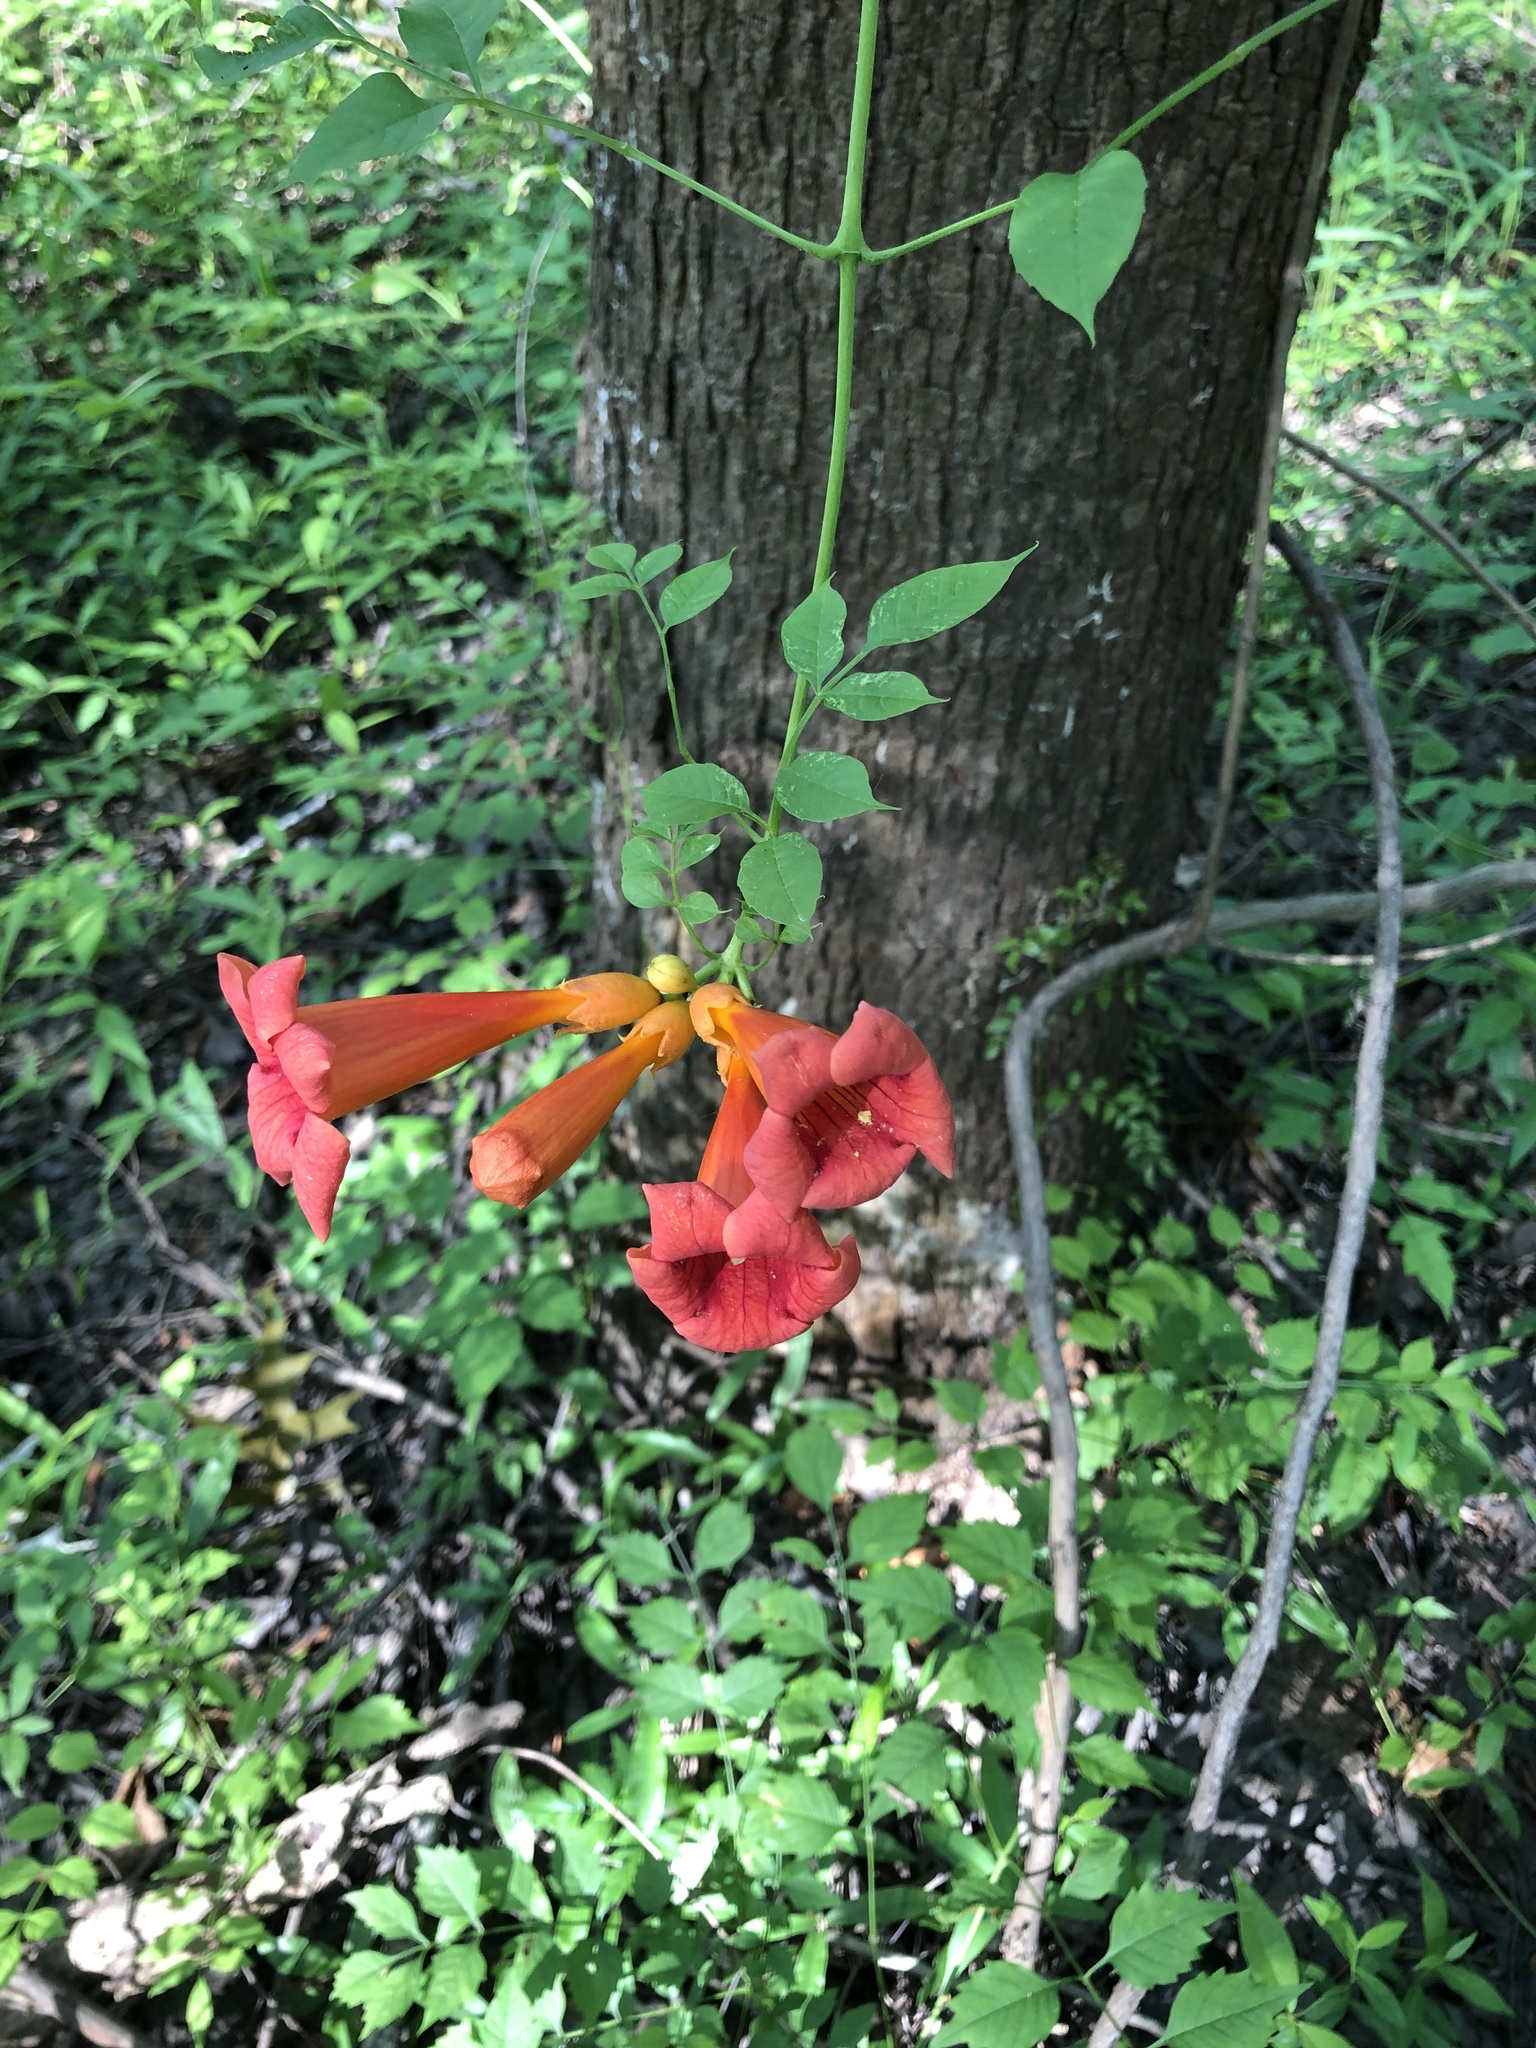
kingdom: Plantae
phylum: Tracheophyta
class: Magnoliopsida
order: Lamiales
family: Bignoniaceae
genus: Campsis
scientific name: Campsis radicans
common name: Trumpet-creeper
